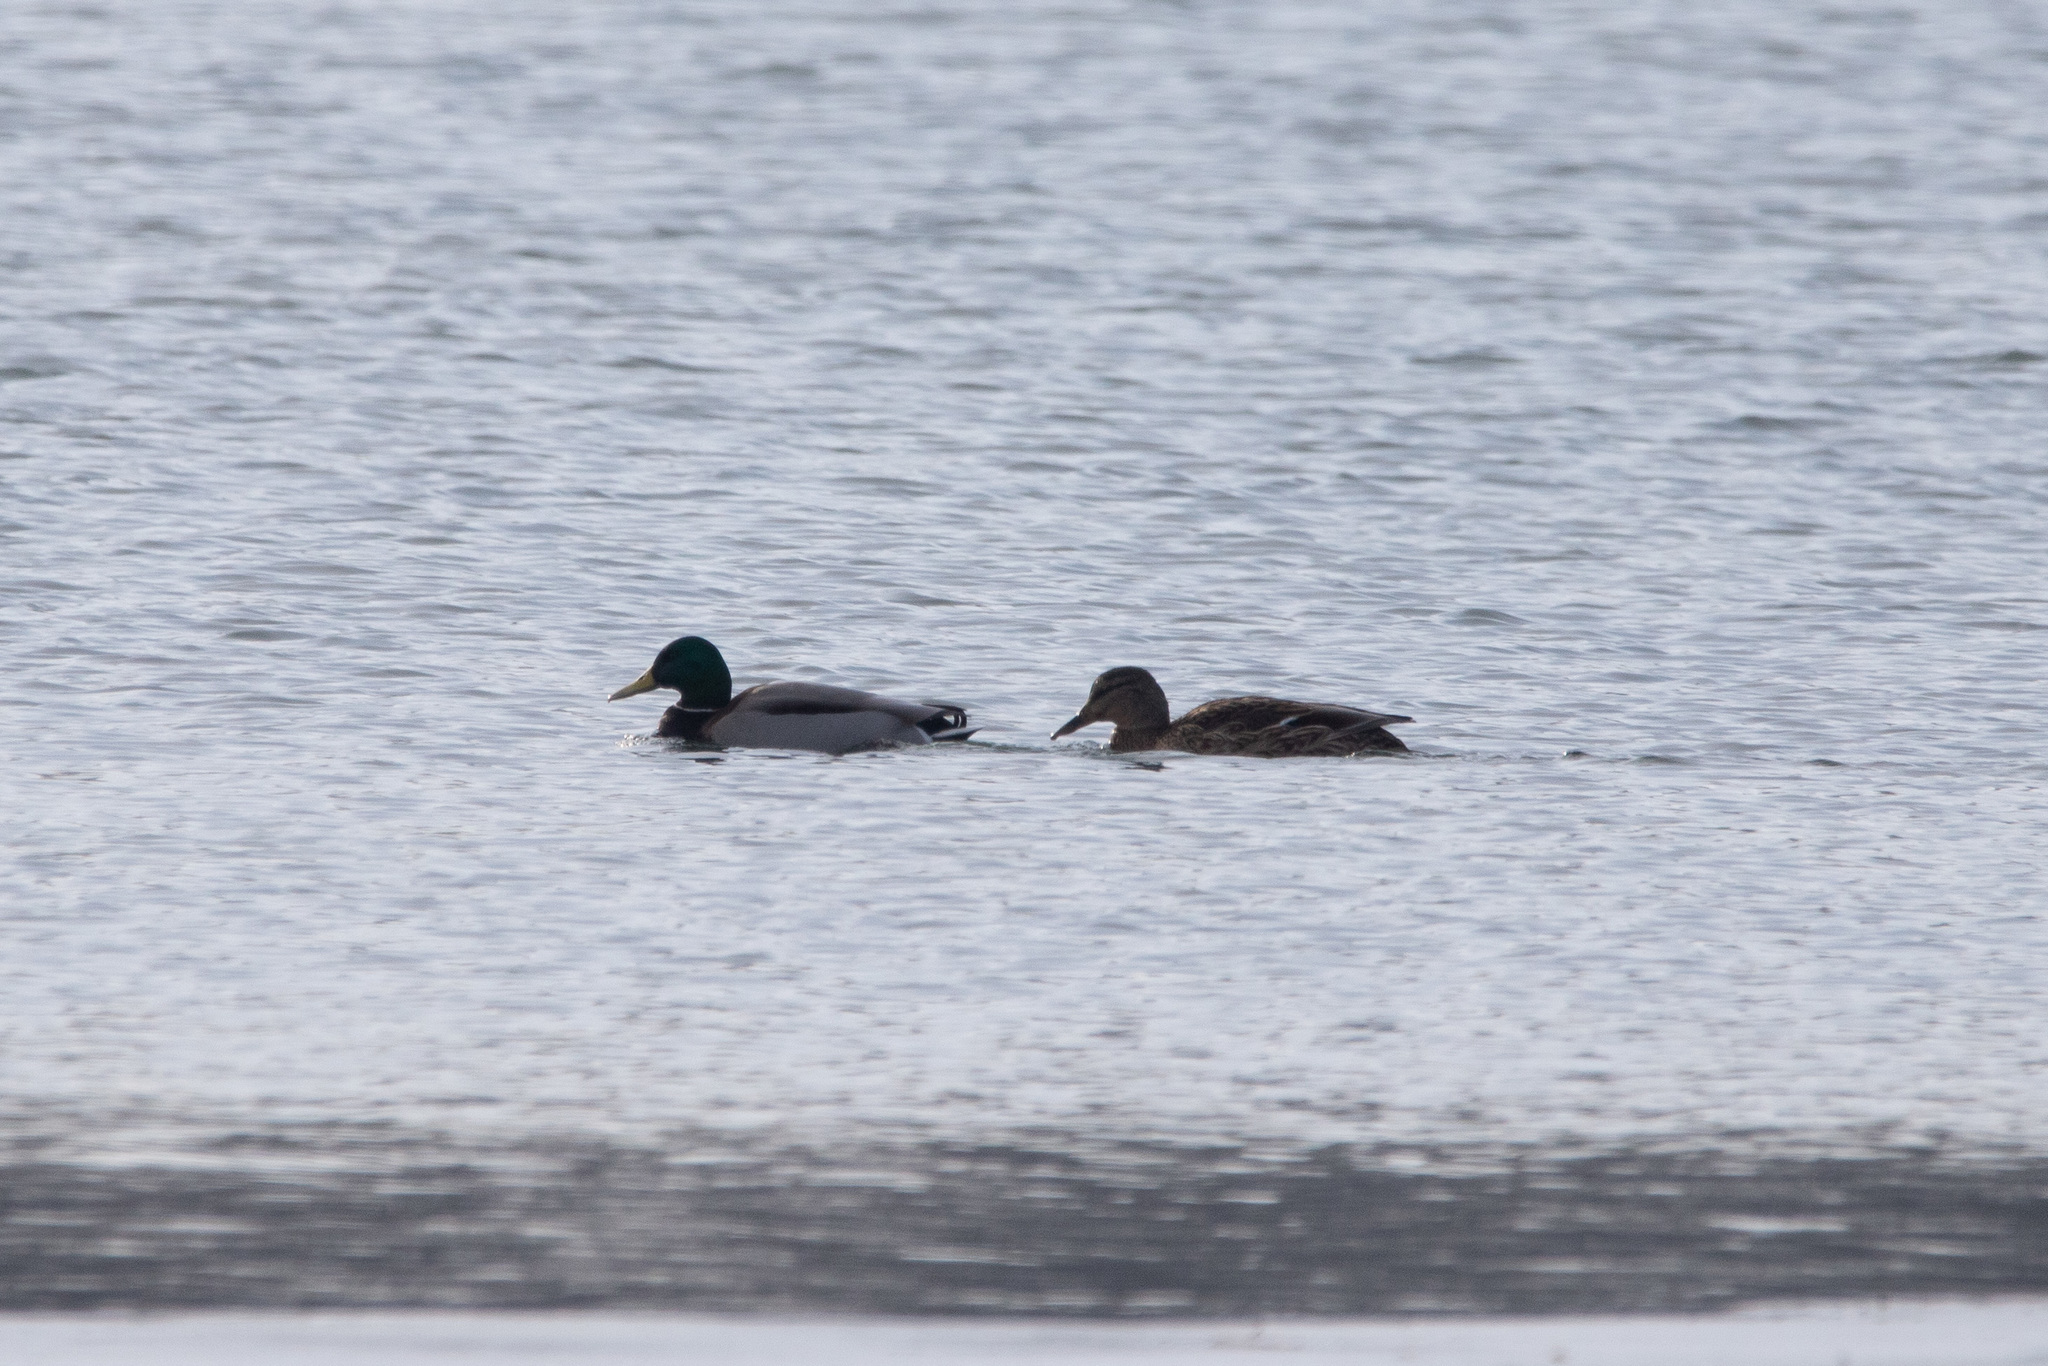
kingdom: Animalia
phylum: Chordata
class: Aves
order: Anseriformes
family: Anatidae
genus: Anas
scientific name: Anas platyrhynchos
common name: Mallard
